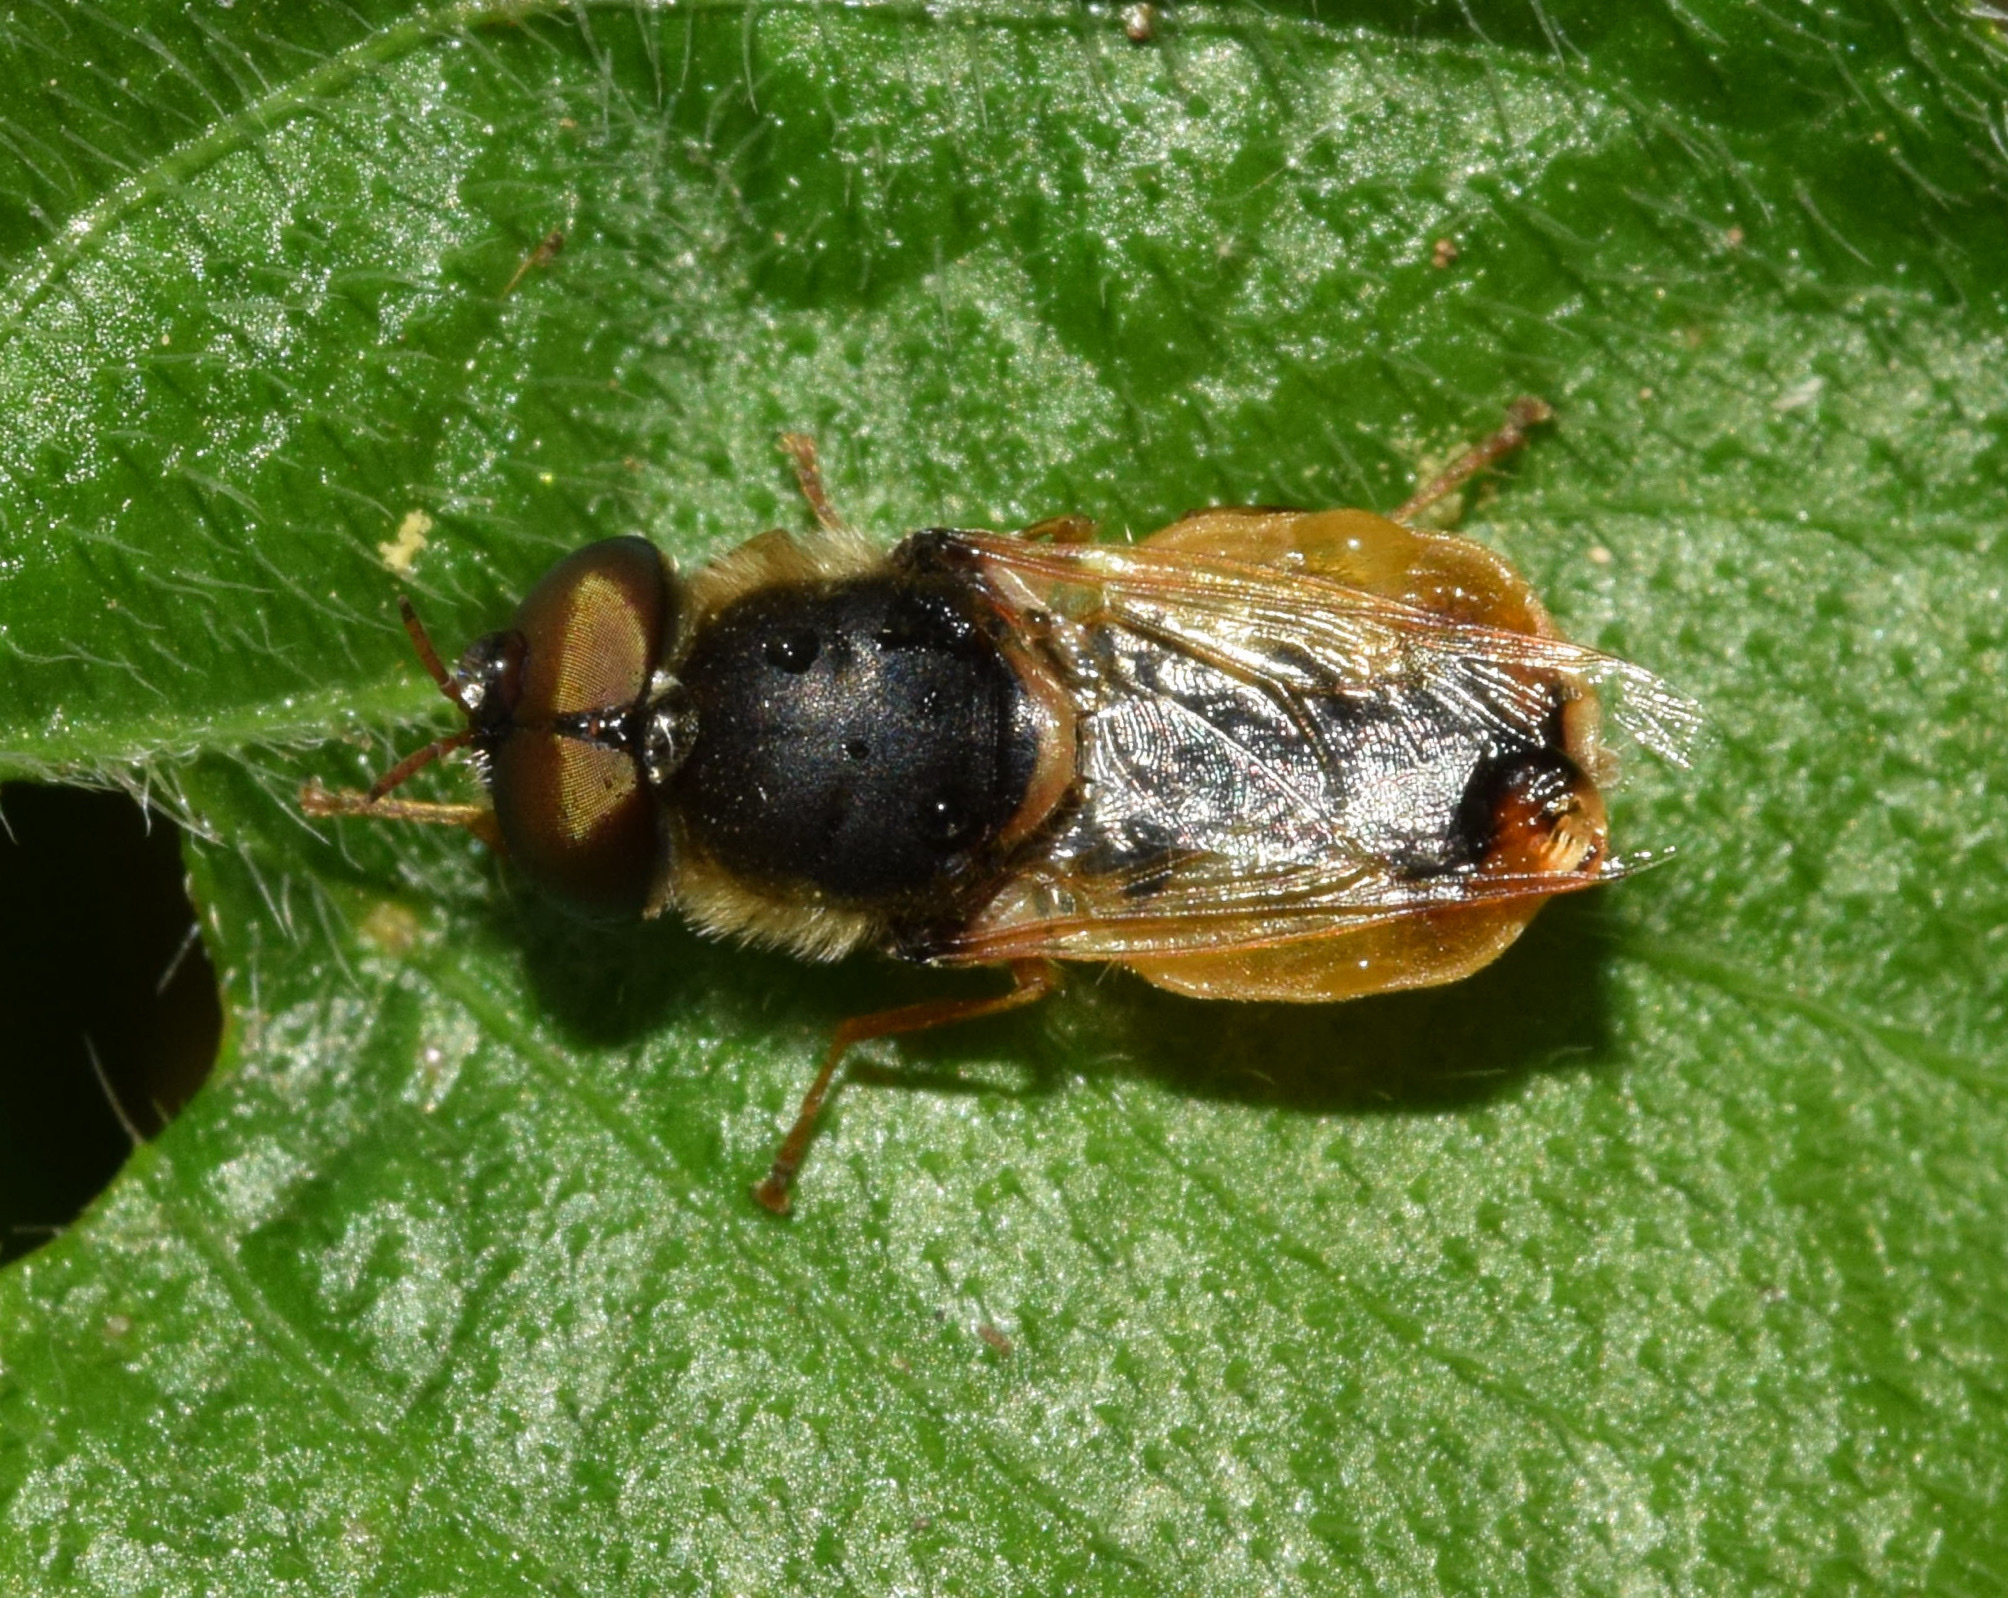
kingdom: Animalia
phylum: Arthropoda
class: Insecta
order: Diptera
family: Stratiomyidae
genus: Odontomyia
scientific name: Odontomyia adusta
